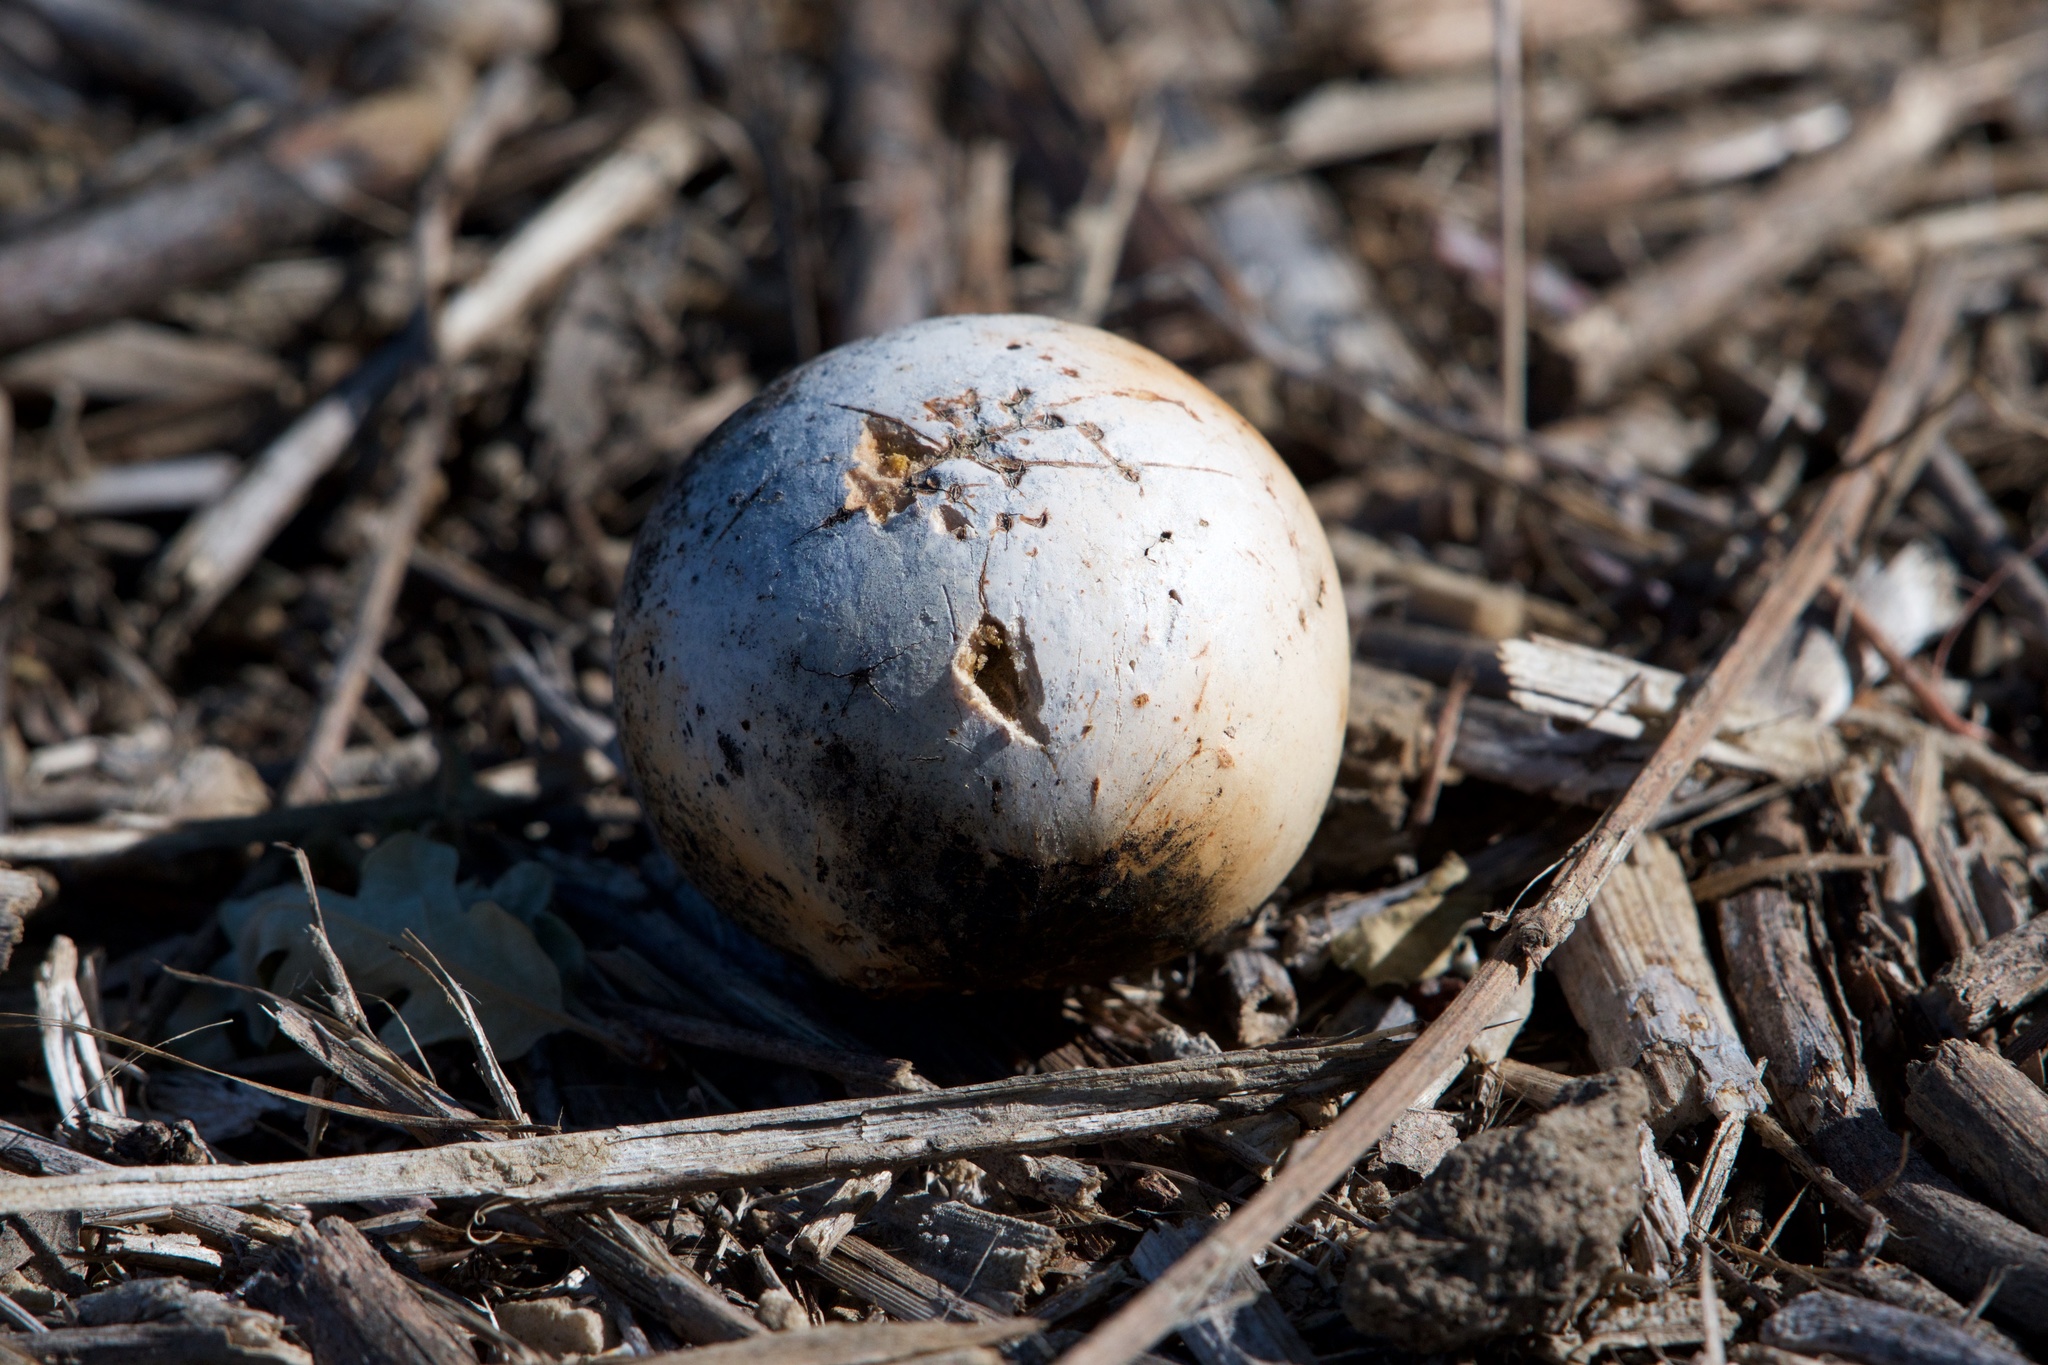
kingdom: Animalia
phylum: Arthropoda
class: Insecta
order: Hymenoptera
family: Cynipidae
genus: Andricus
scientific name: Andricus quercuscalifornicus
